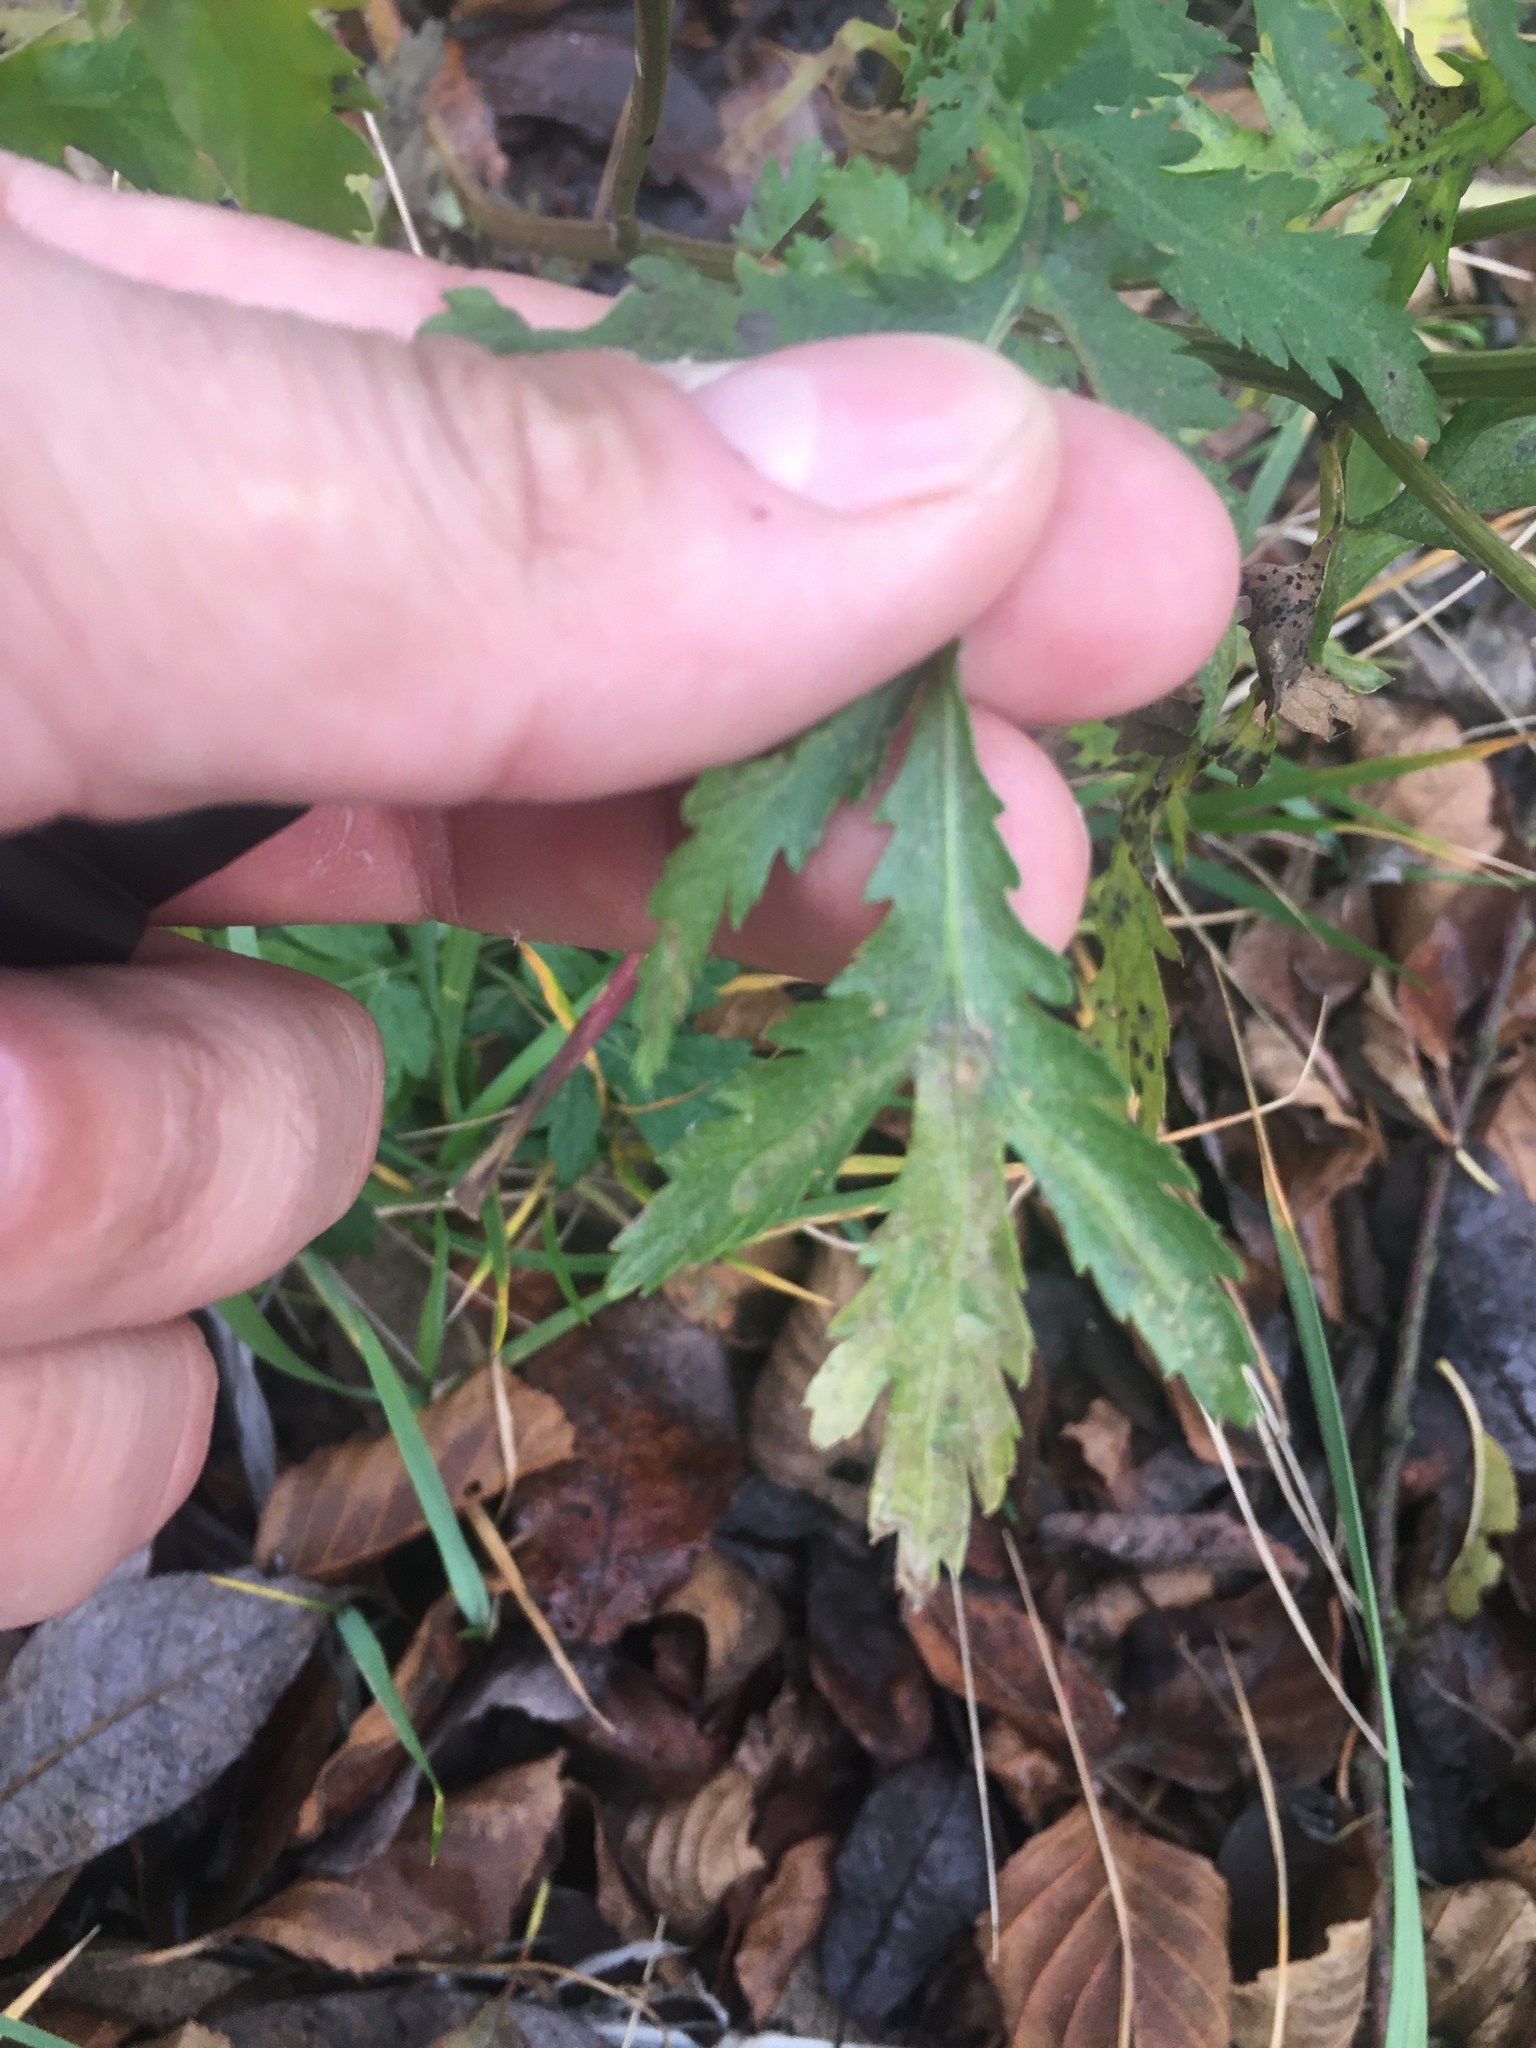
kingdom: Plantae
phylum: Tracheophyta
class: Magnoliopsida
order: Asterales
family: Asteraceae
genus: Tanacetum
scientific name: Tanacetum vulgare
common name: Common tansy
